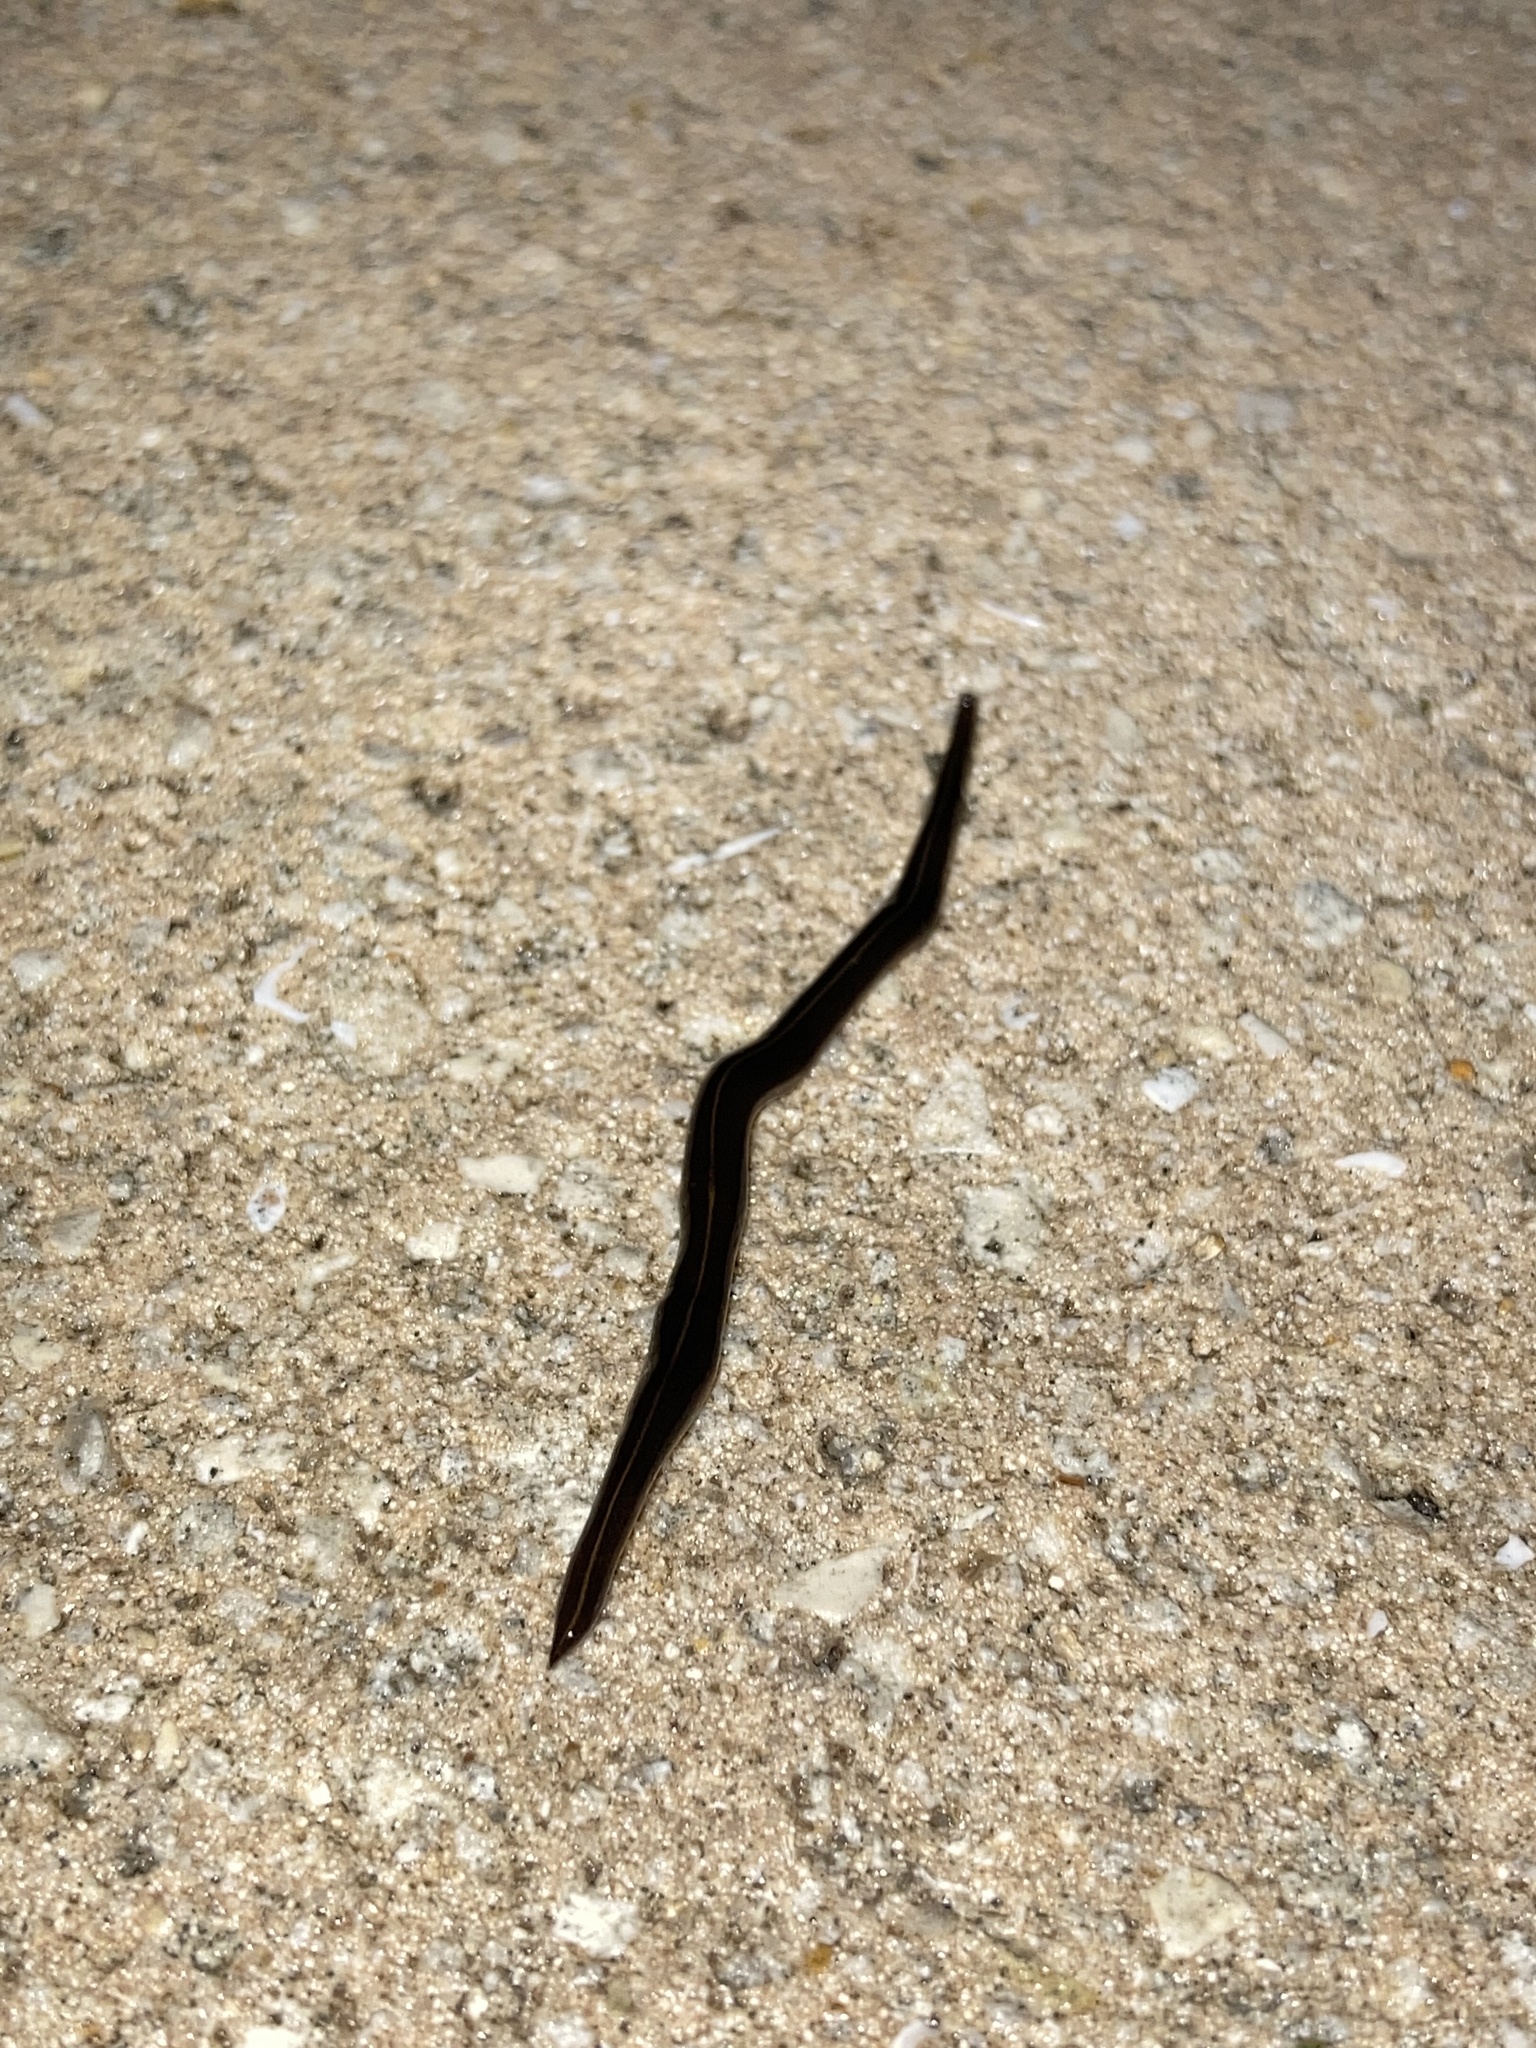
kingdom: Animalia
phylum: Platyhelminthes
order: Tricladida
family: Geoplanidae
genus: Platydemus
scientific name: Platydemus manokwari
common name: New guinea flatworm
